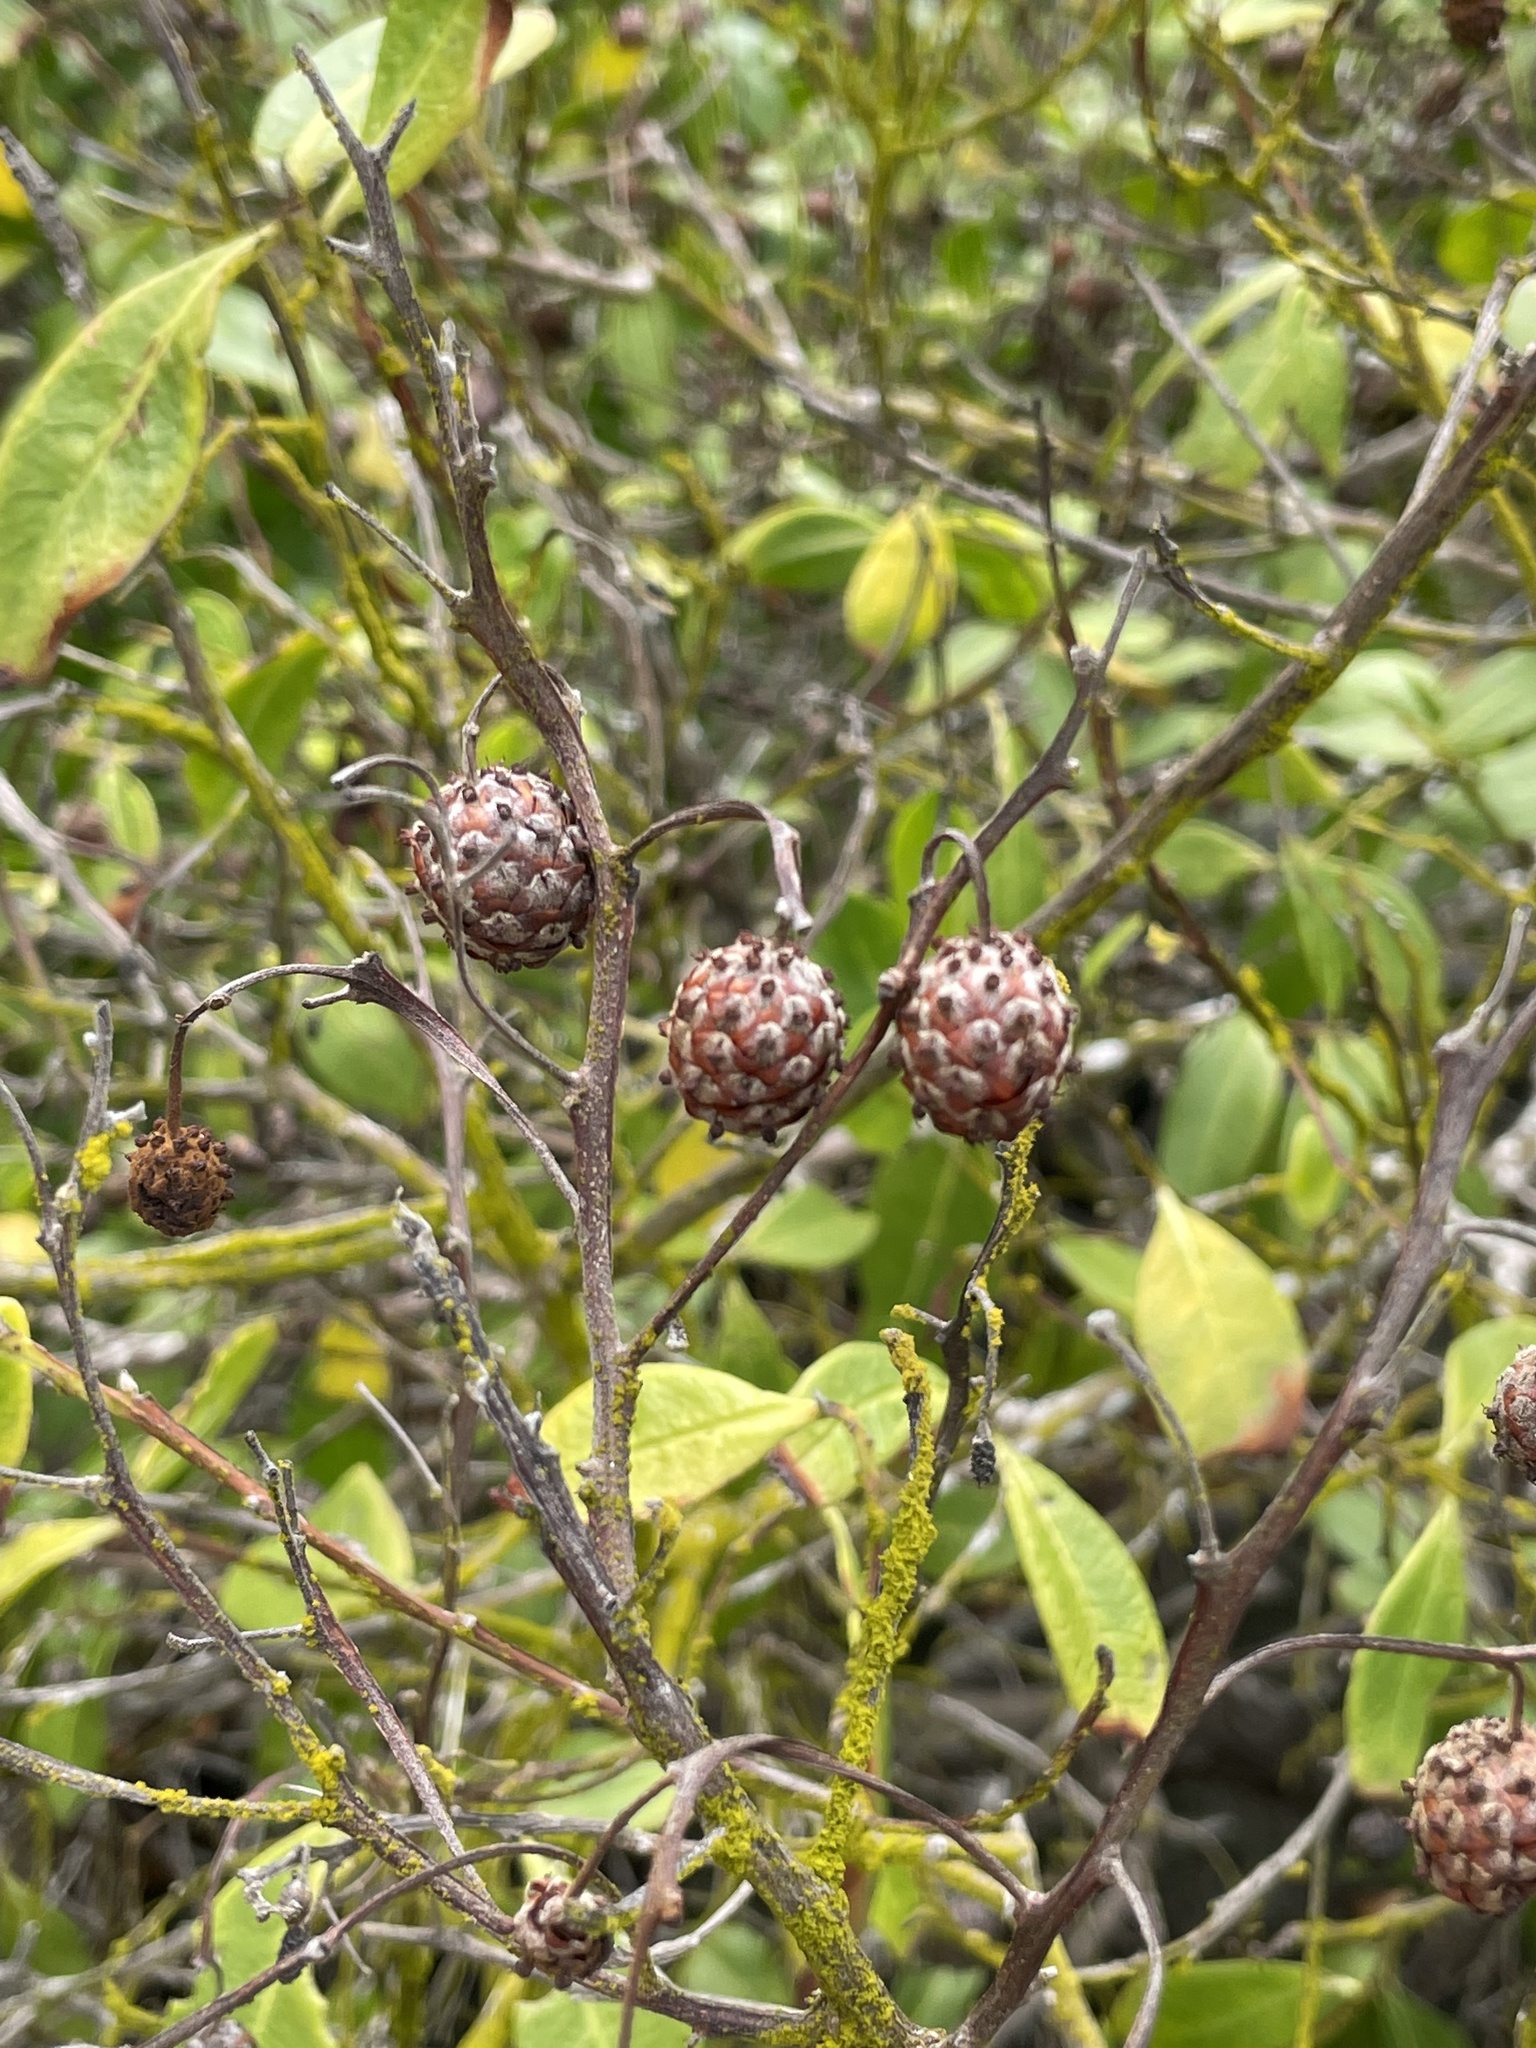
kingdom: Plantae
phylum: Tracheophyta
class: Magnoliopsida
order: Myrtales
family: Combretaceae
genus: Conocarpus
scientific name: Conocarpus erectus
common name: Button mangrove
